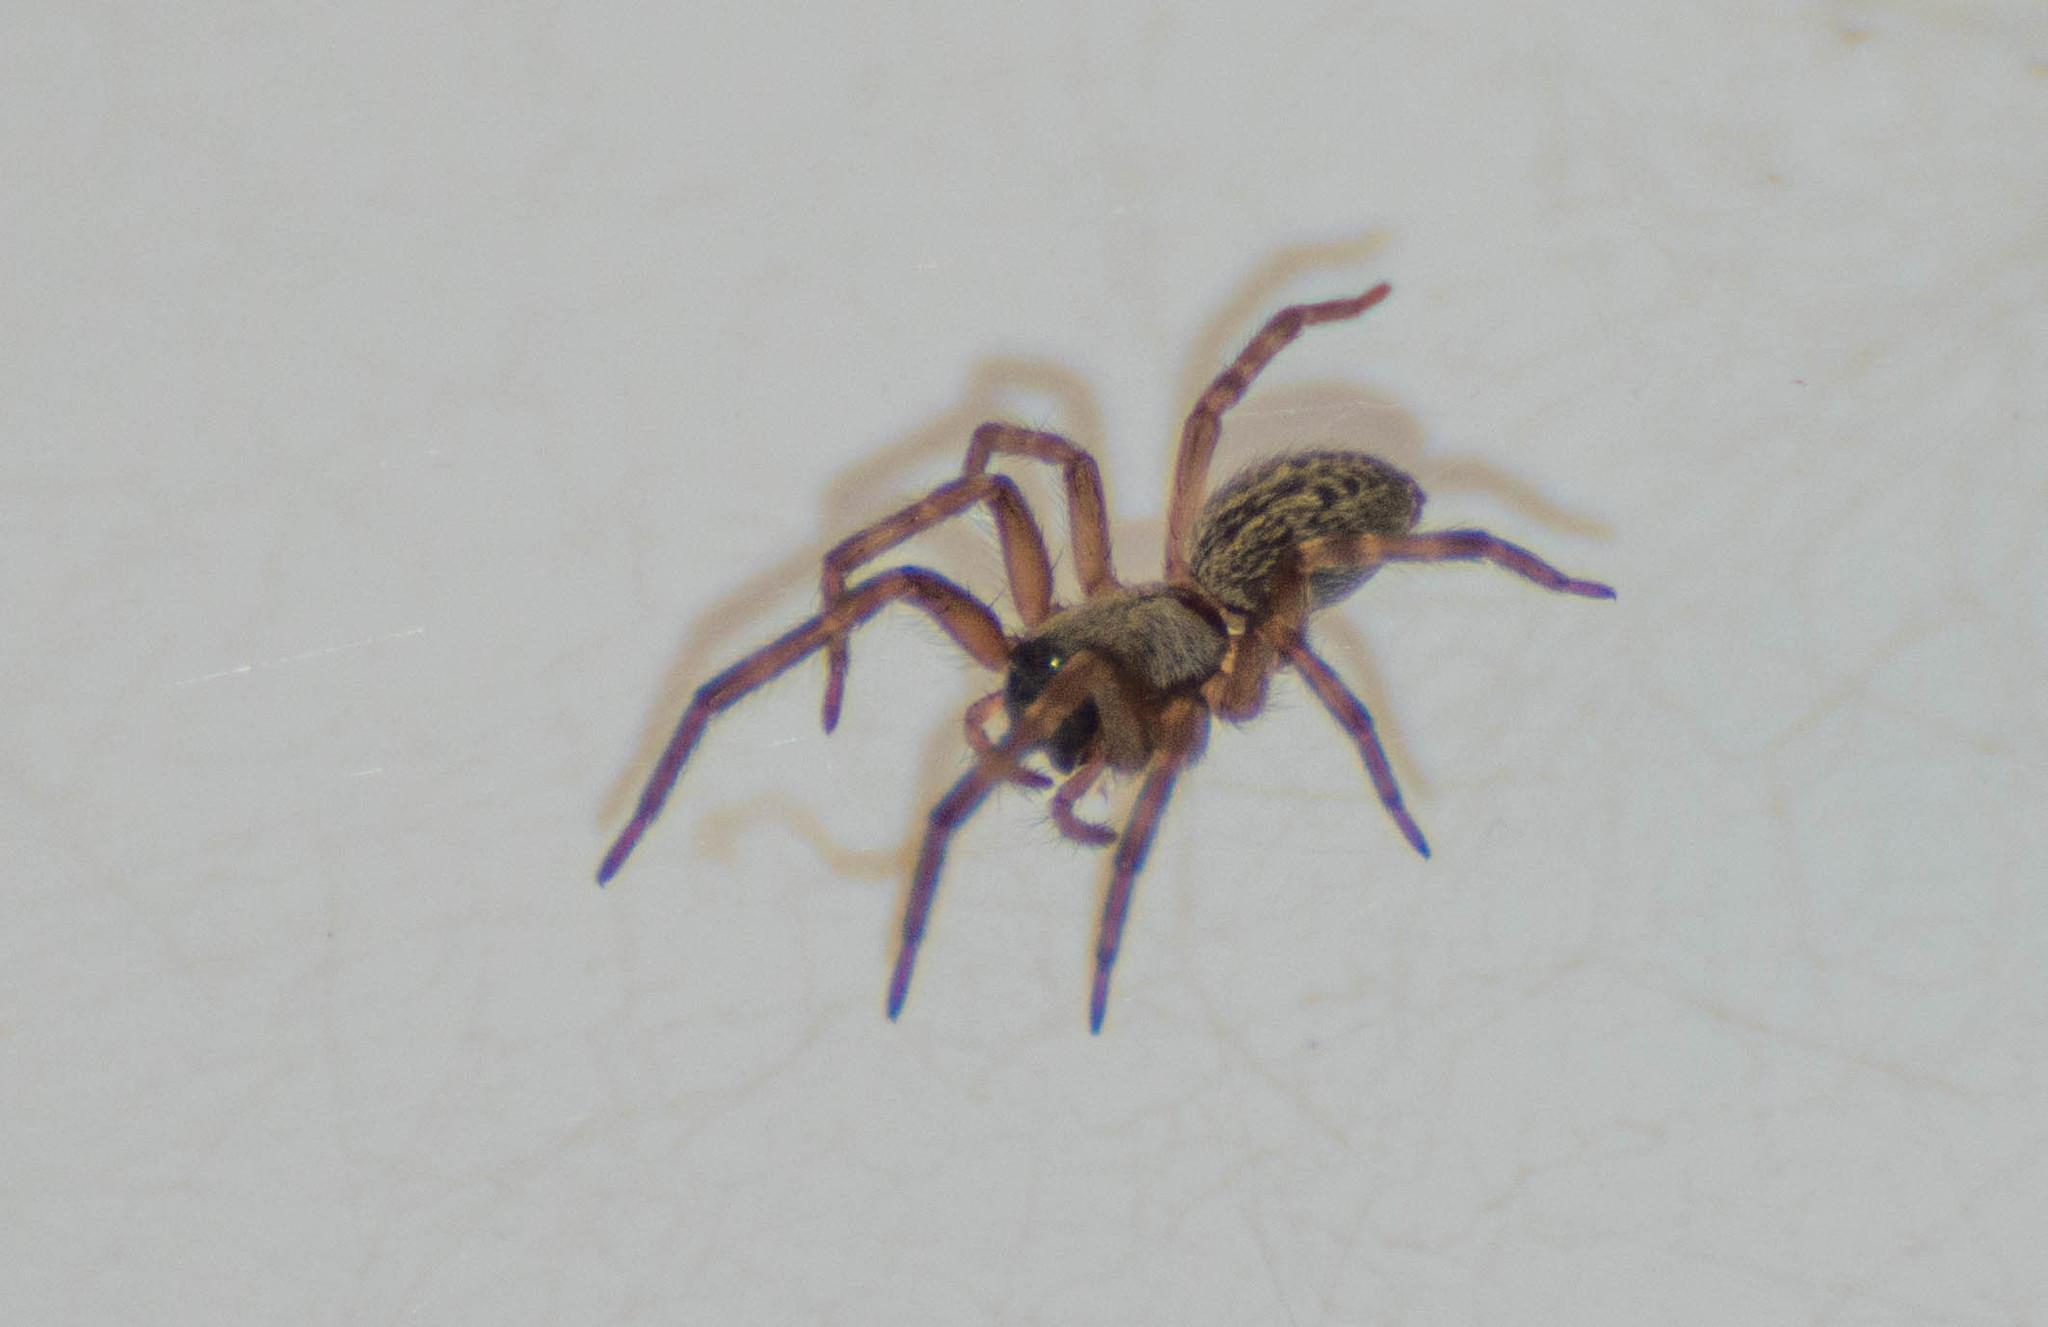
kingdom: Animalia
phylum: Arthropoda
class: Arachnida
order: Araneae
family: Desidae
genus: Badumna
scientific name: Badumna longinqua
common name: Gray house spider
